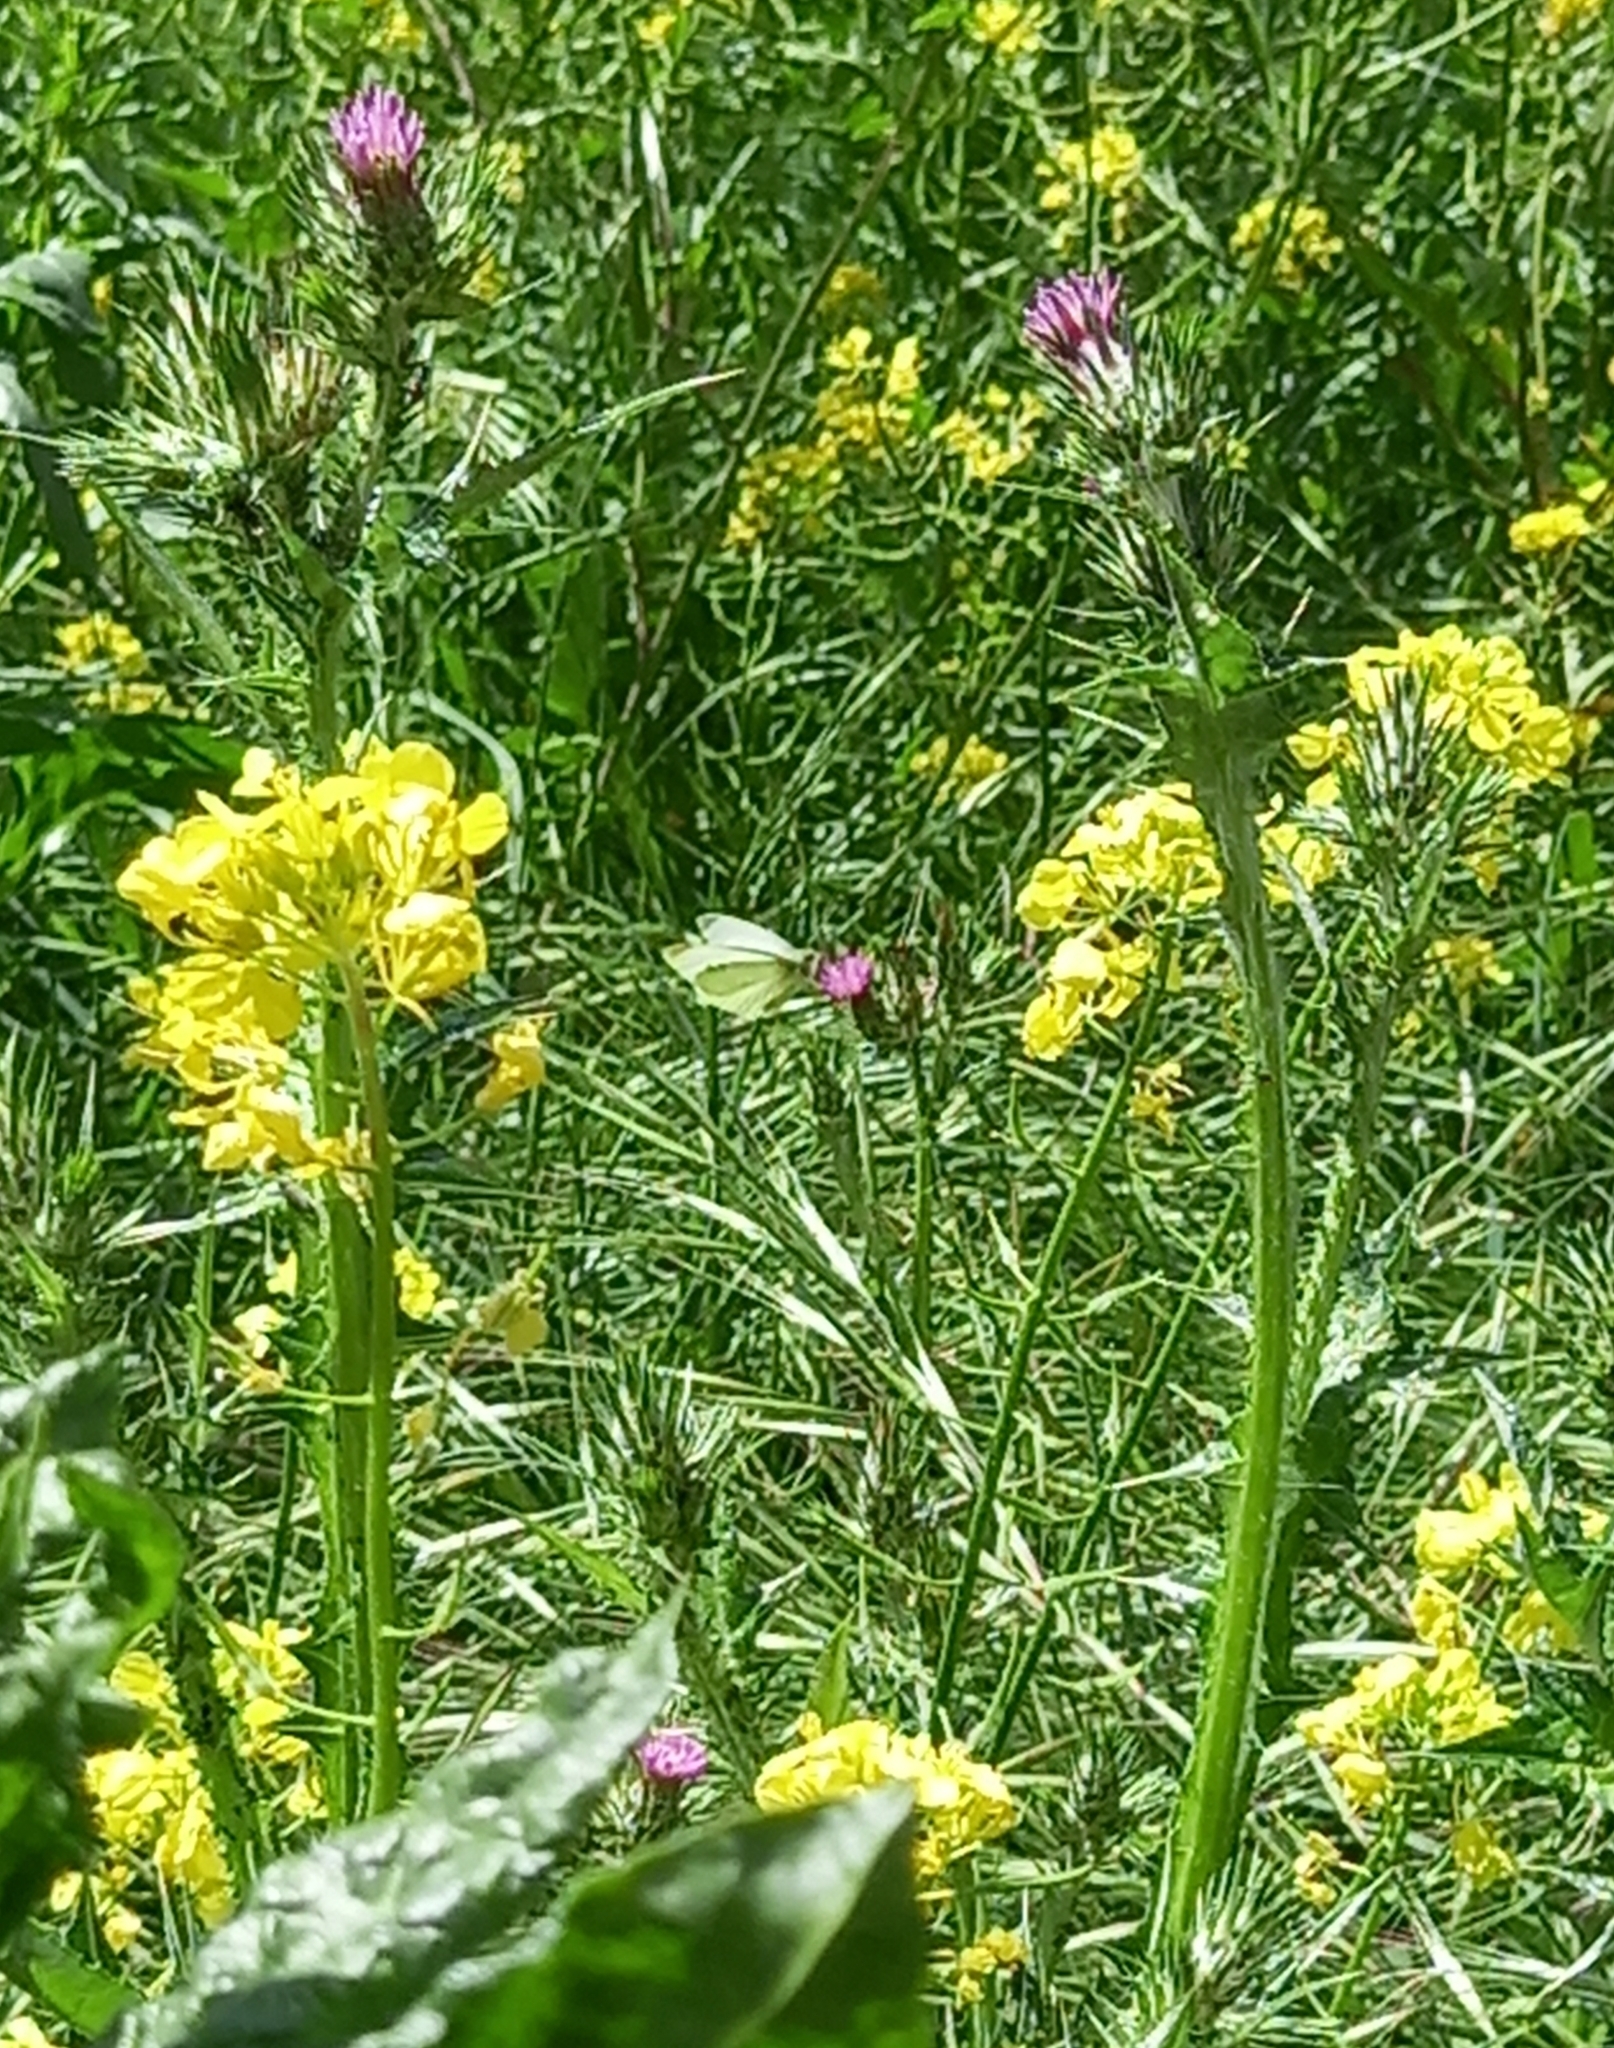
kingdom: Animalia
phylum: Arthropoda
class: Insecta
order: Lepidoptera
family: Pieridae
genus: Pieris
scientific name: Pieris rapae
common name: Small white
